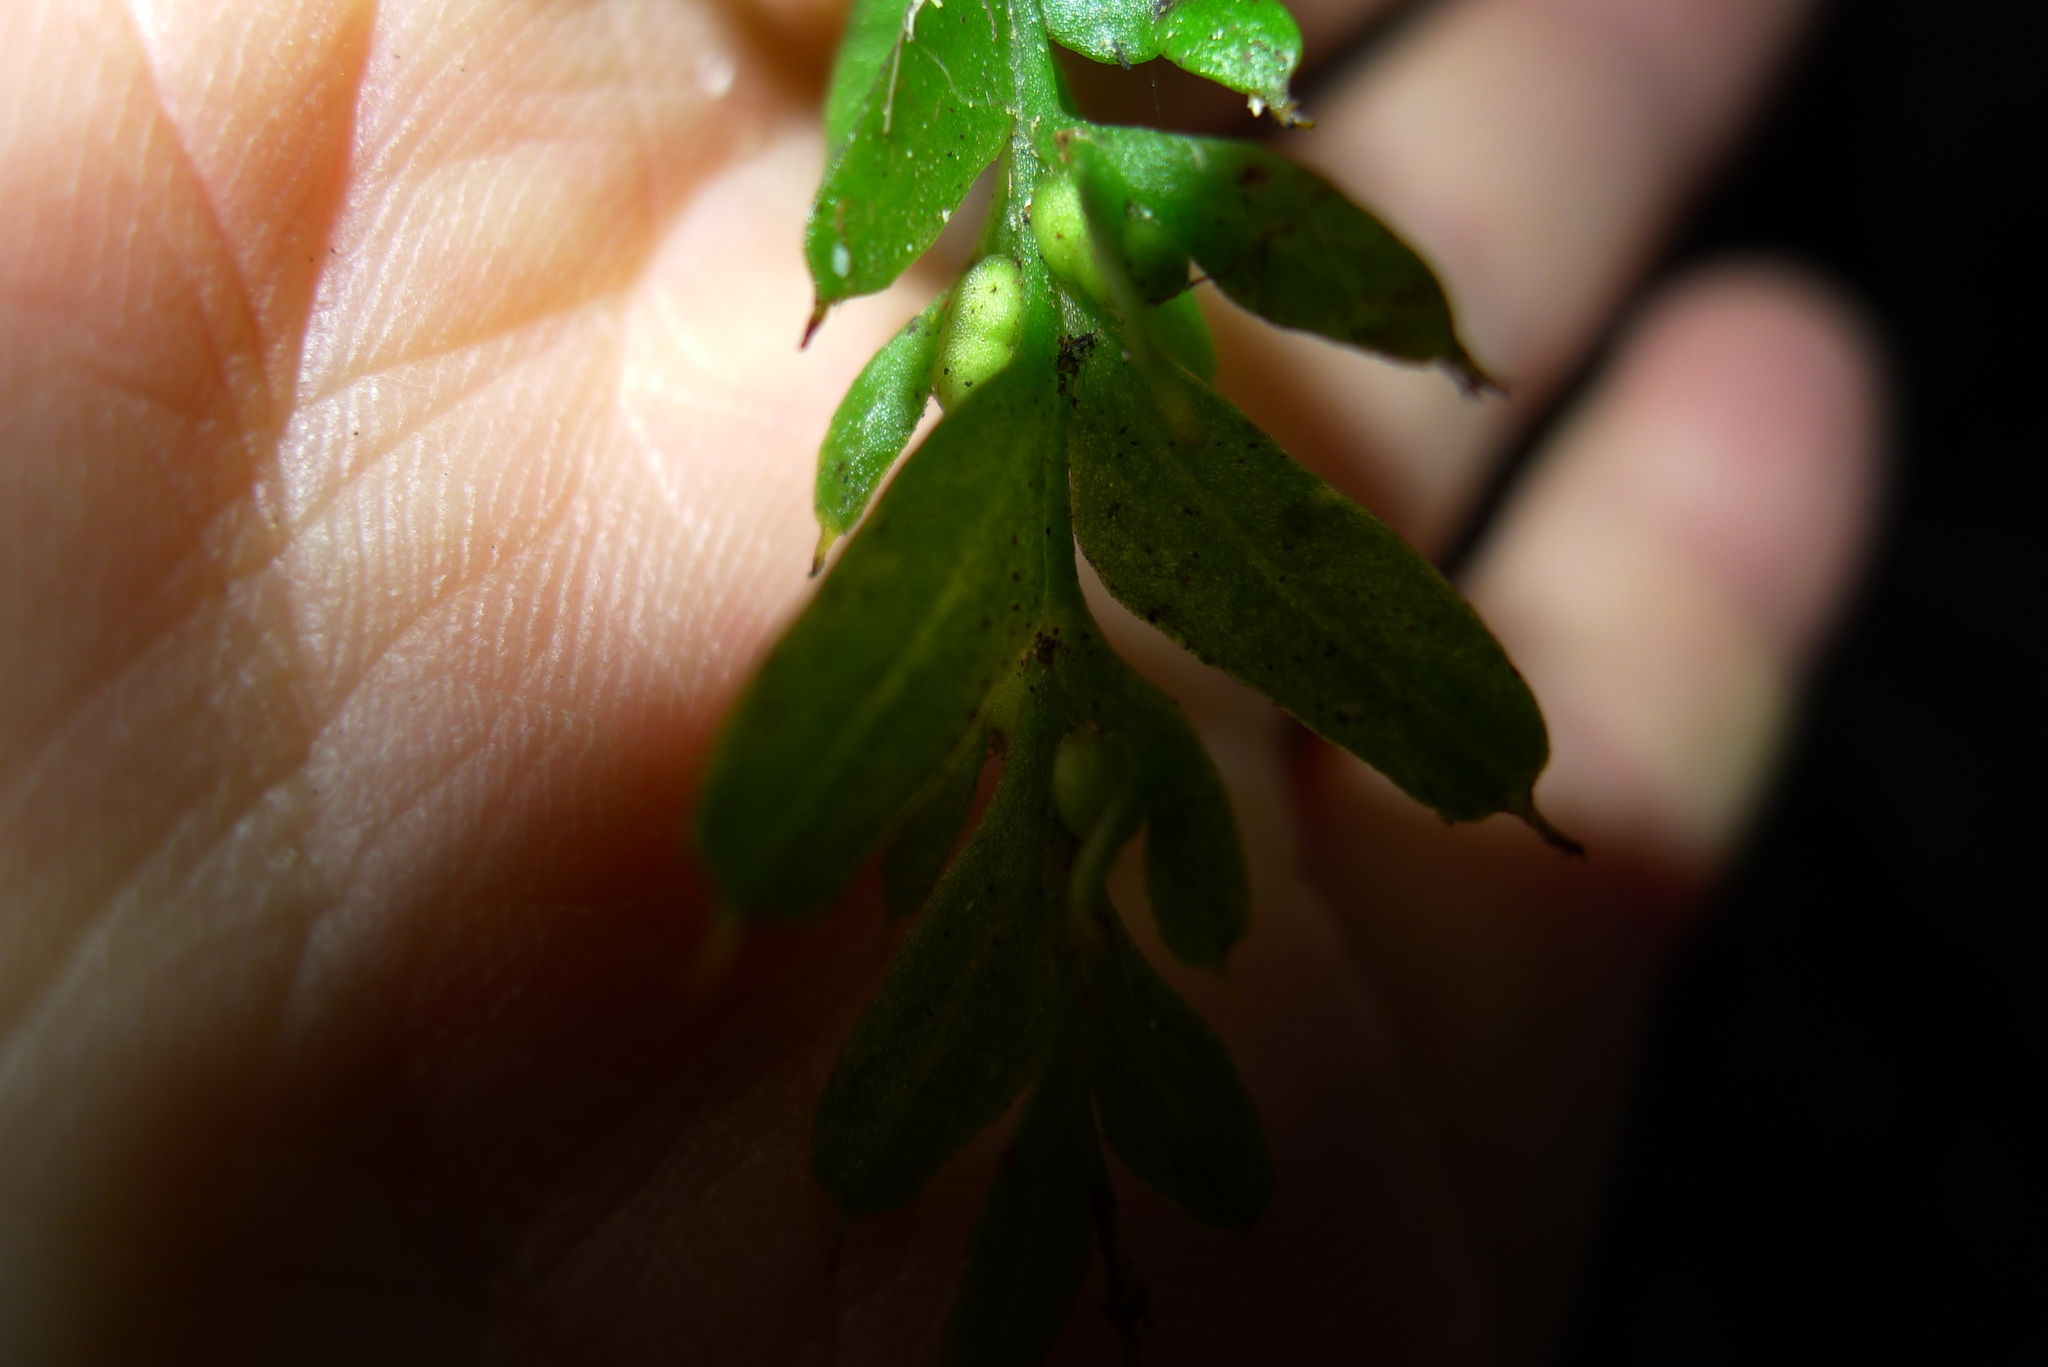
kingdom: Plantae
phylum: Tracheophyta
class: Polypodiopsida
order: Psilotales
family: Psilotaceae
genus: Tmesipteris
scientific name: Tmesipteris horomaka
